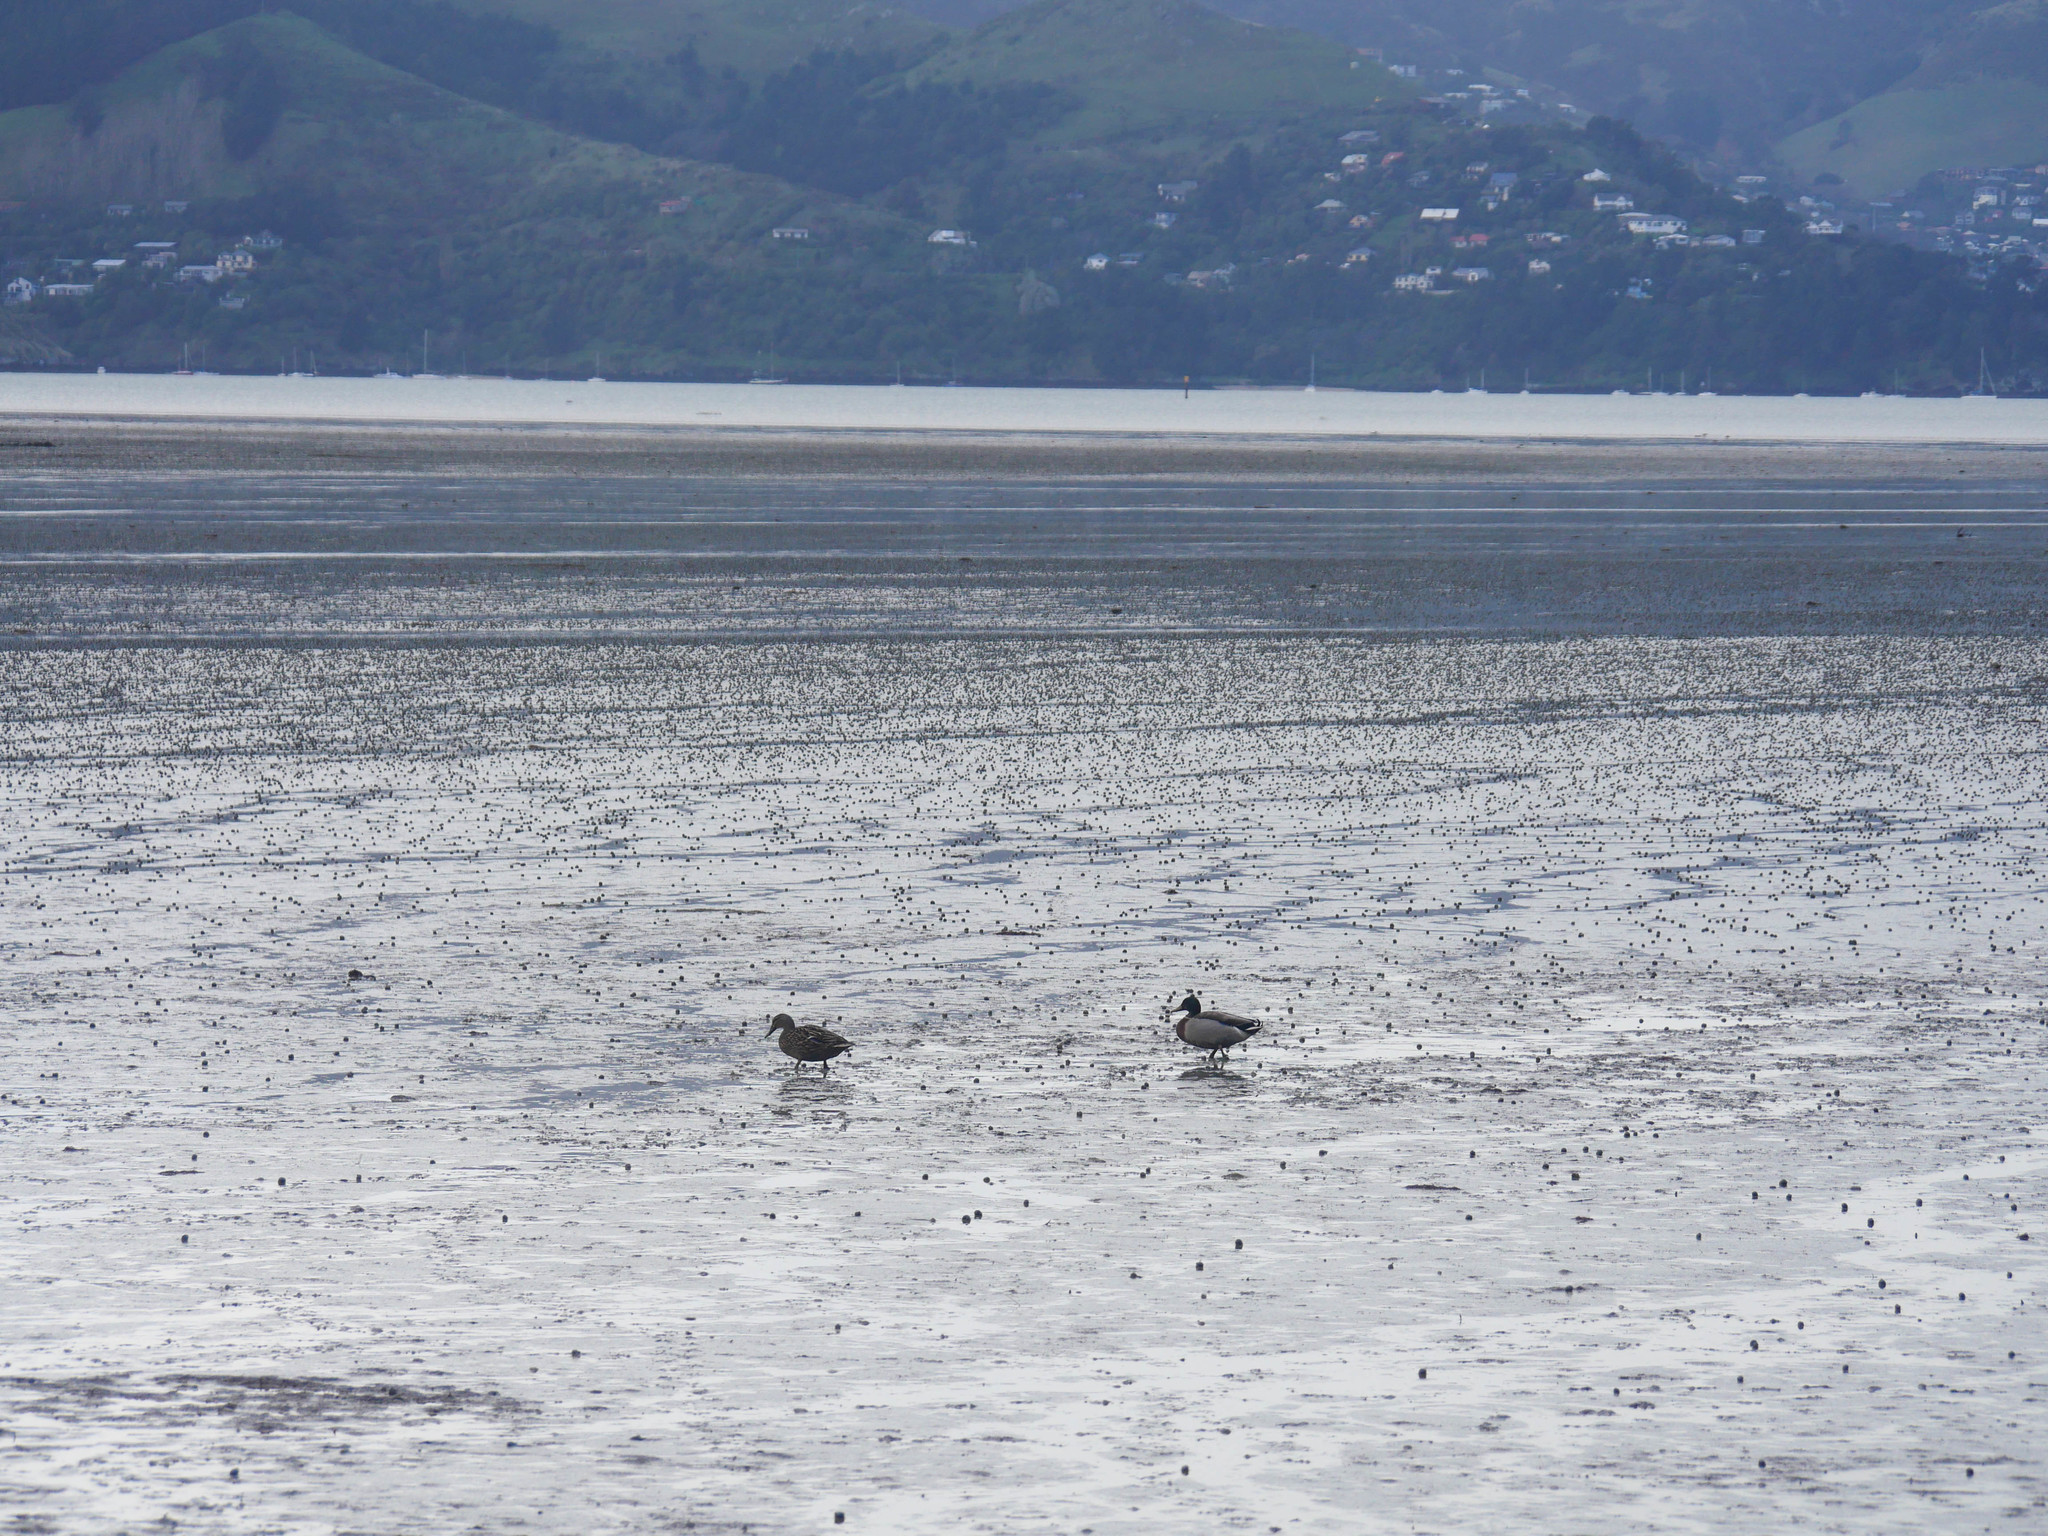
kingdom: Animalia
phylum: Chordata
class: Aves
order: Anseriformes
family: Anatidae
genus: Anas
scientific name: Anas platyrhynchos
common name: Mallard
